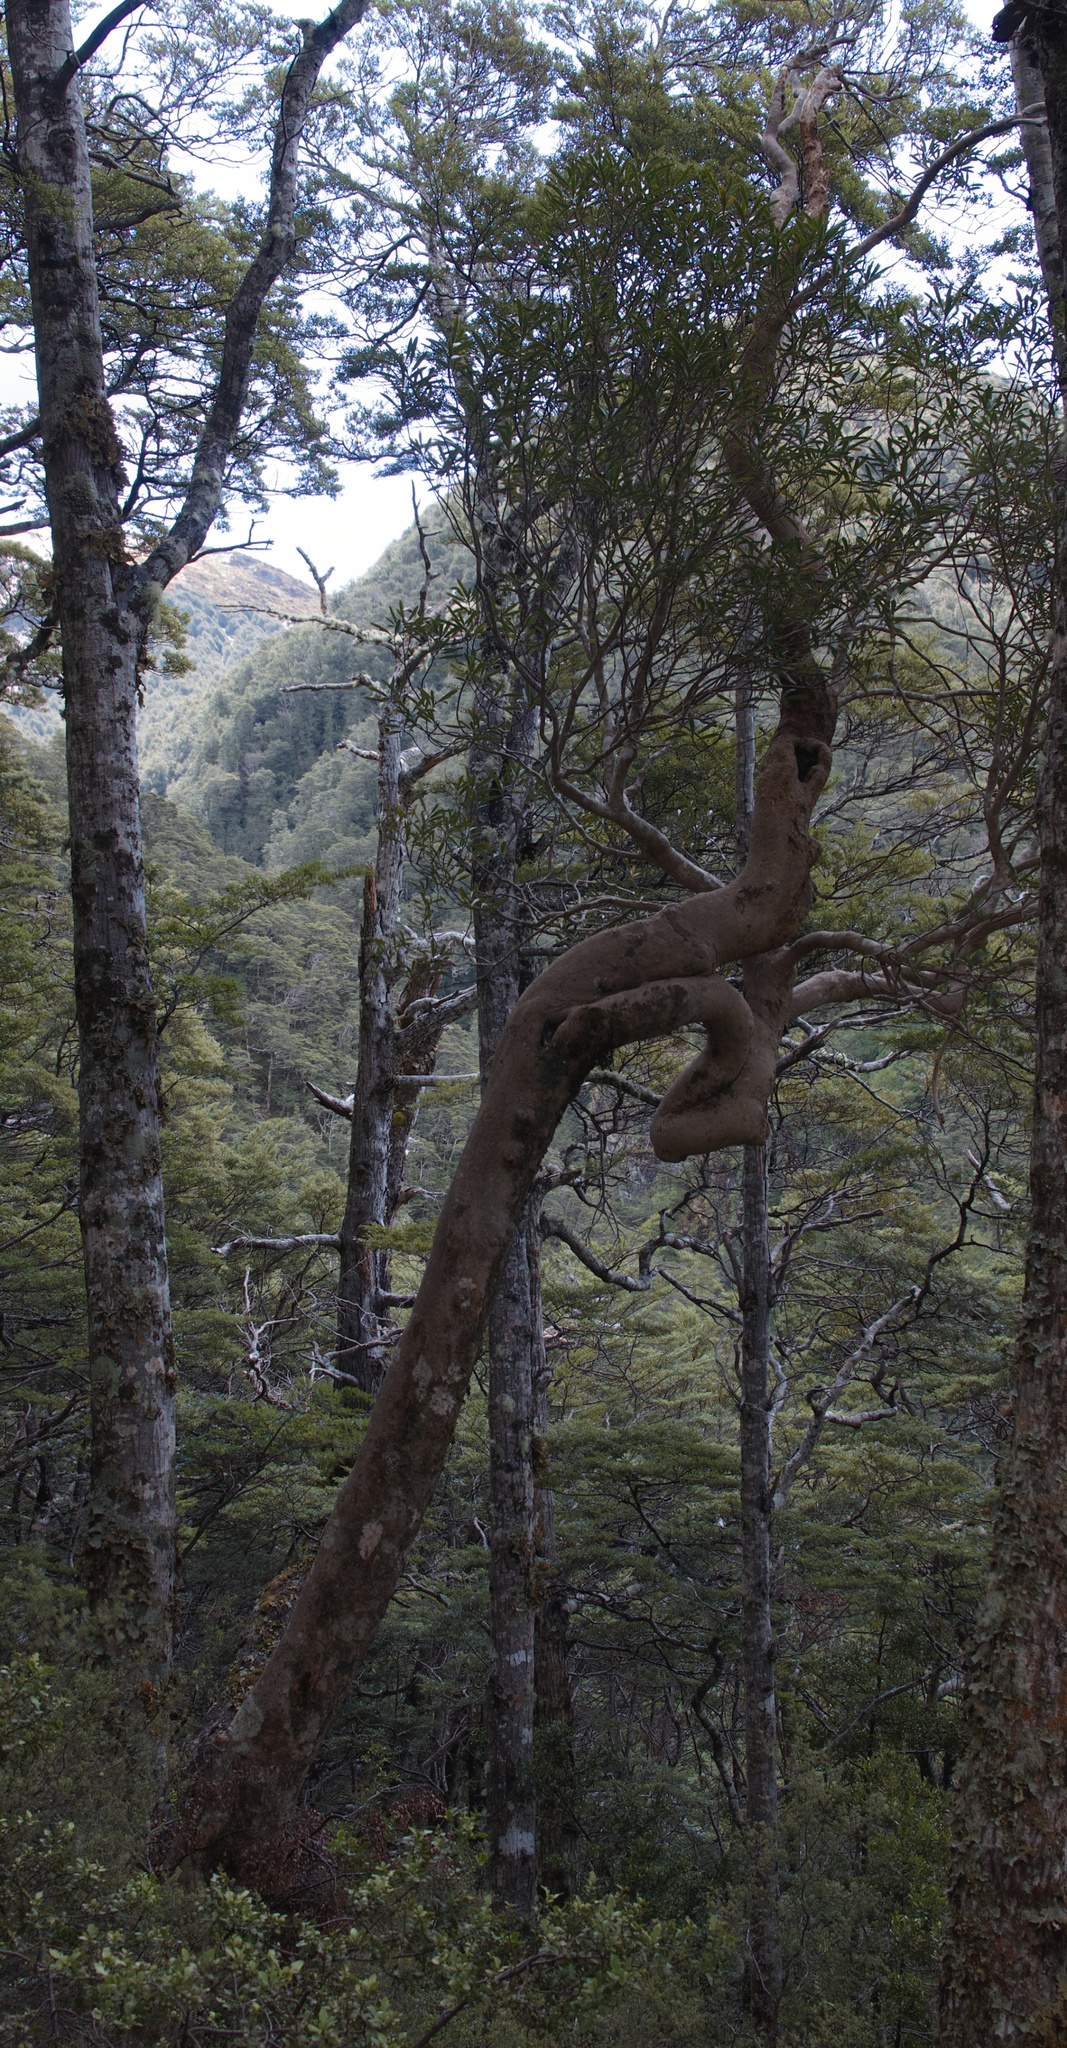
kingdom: Plantae
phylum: Tracheophyta
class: Magnoliopsida
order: Apiales
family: Araliaceae
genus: Pseudopanax
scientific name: Pseudopanax crassifolius
